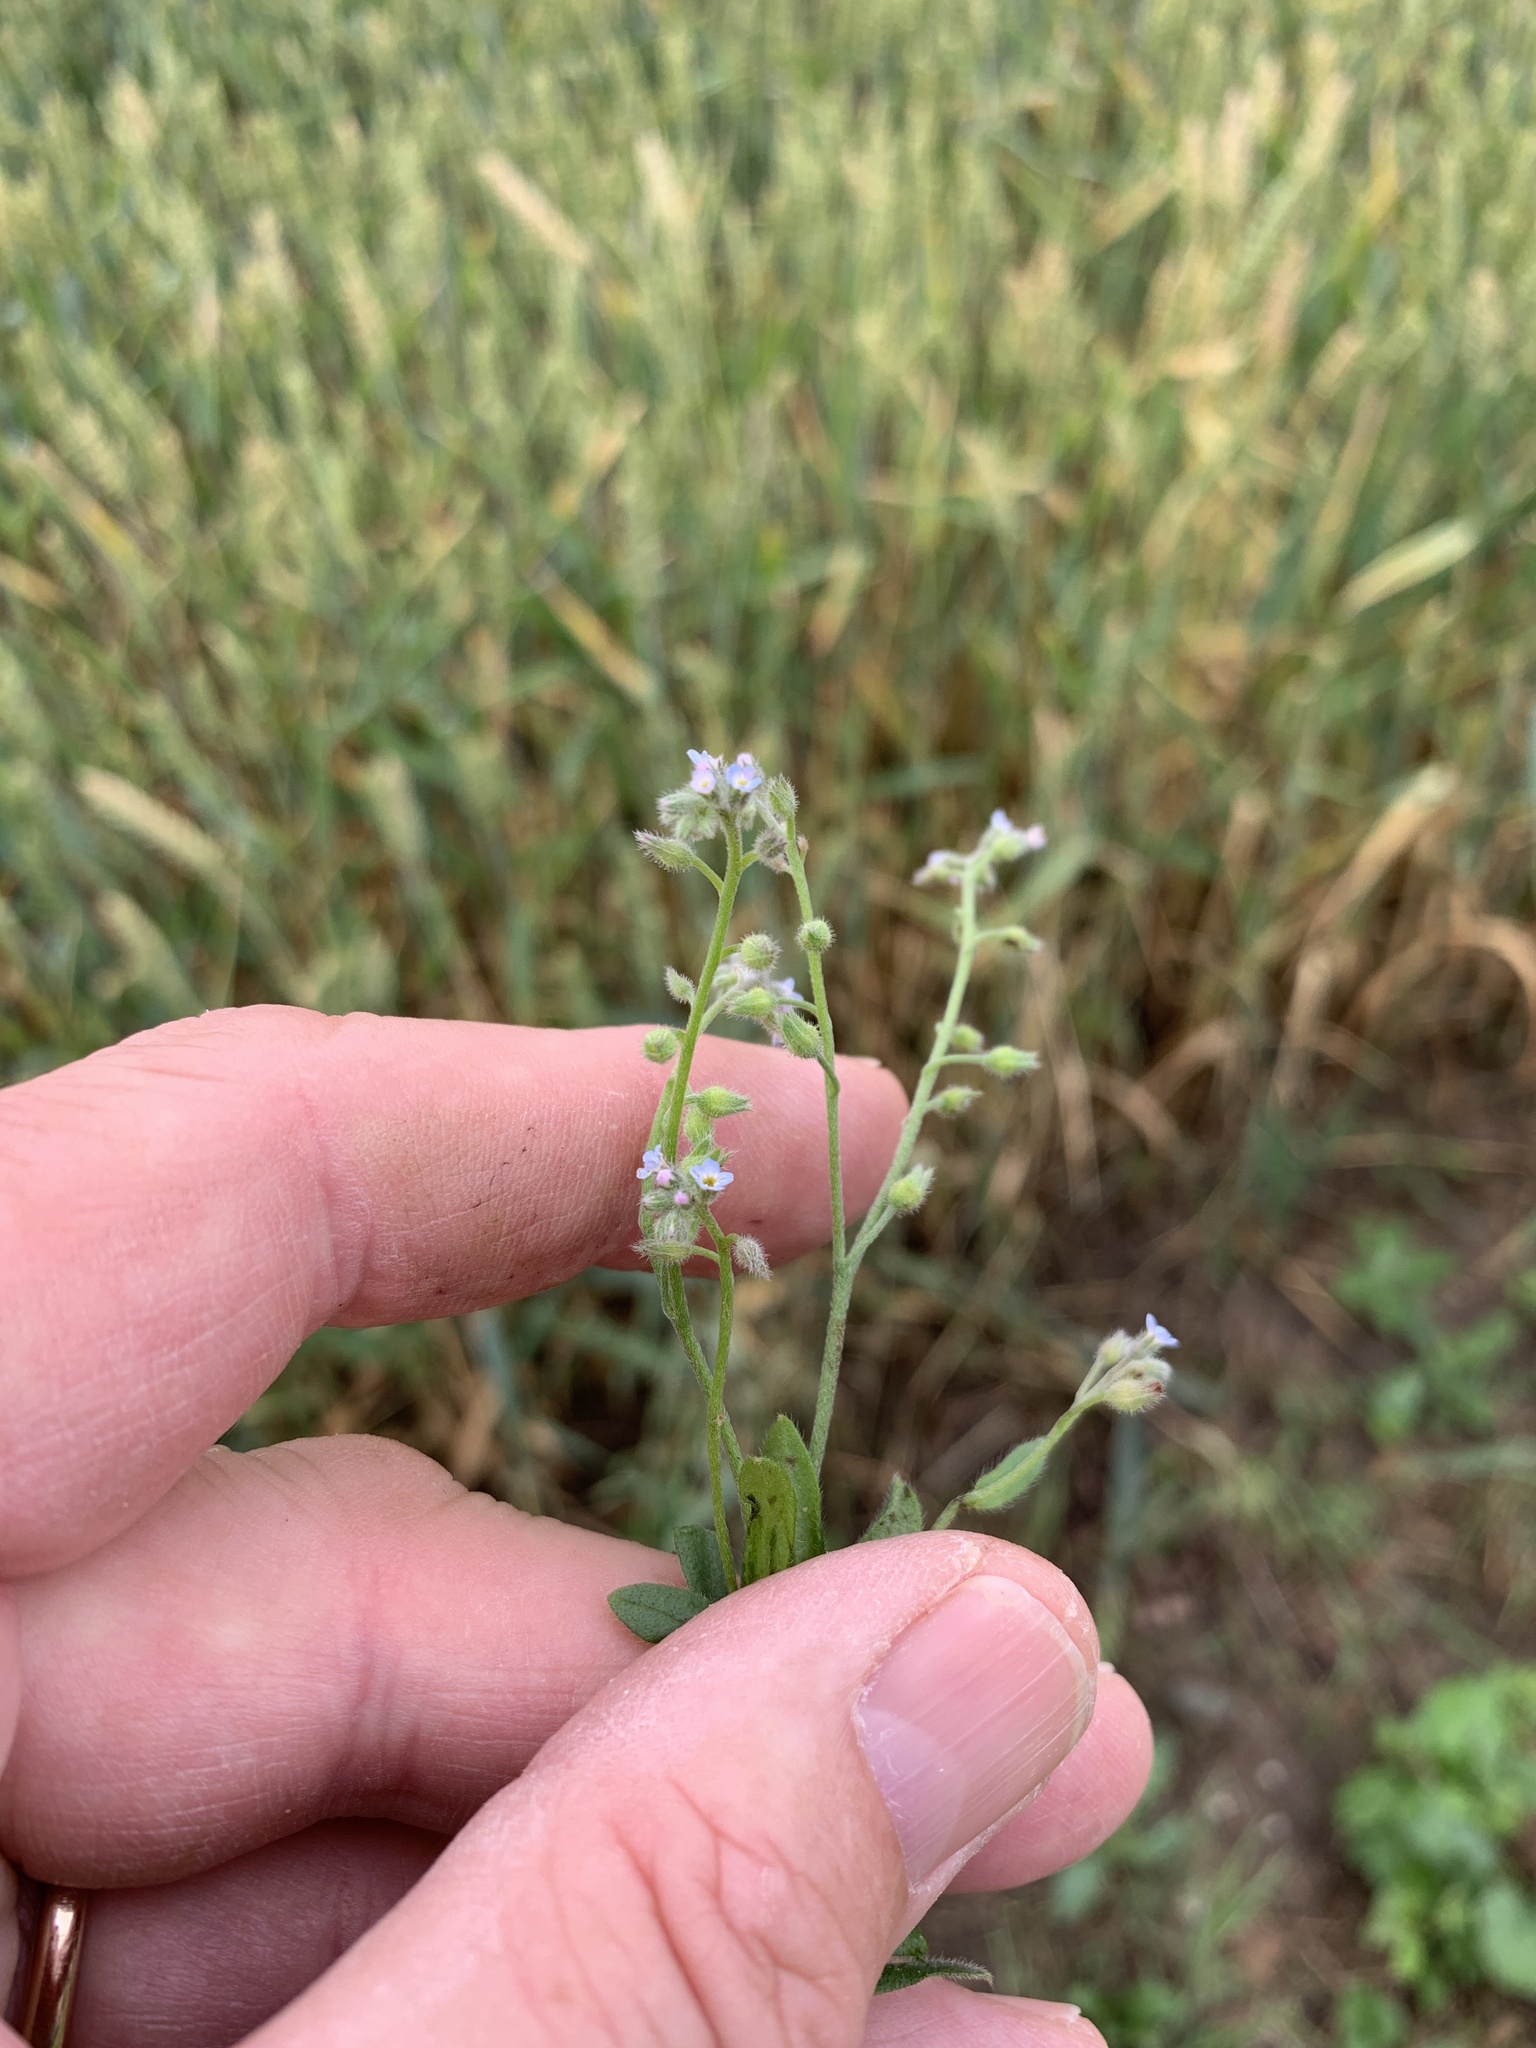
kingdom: Plantae
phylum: Tracheophyta
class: Magnoliopsida
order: Boraginales
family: Boraginaceae
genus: Myosotis
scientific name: Myosotis arvensis
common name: Field forget-me-not
